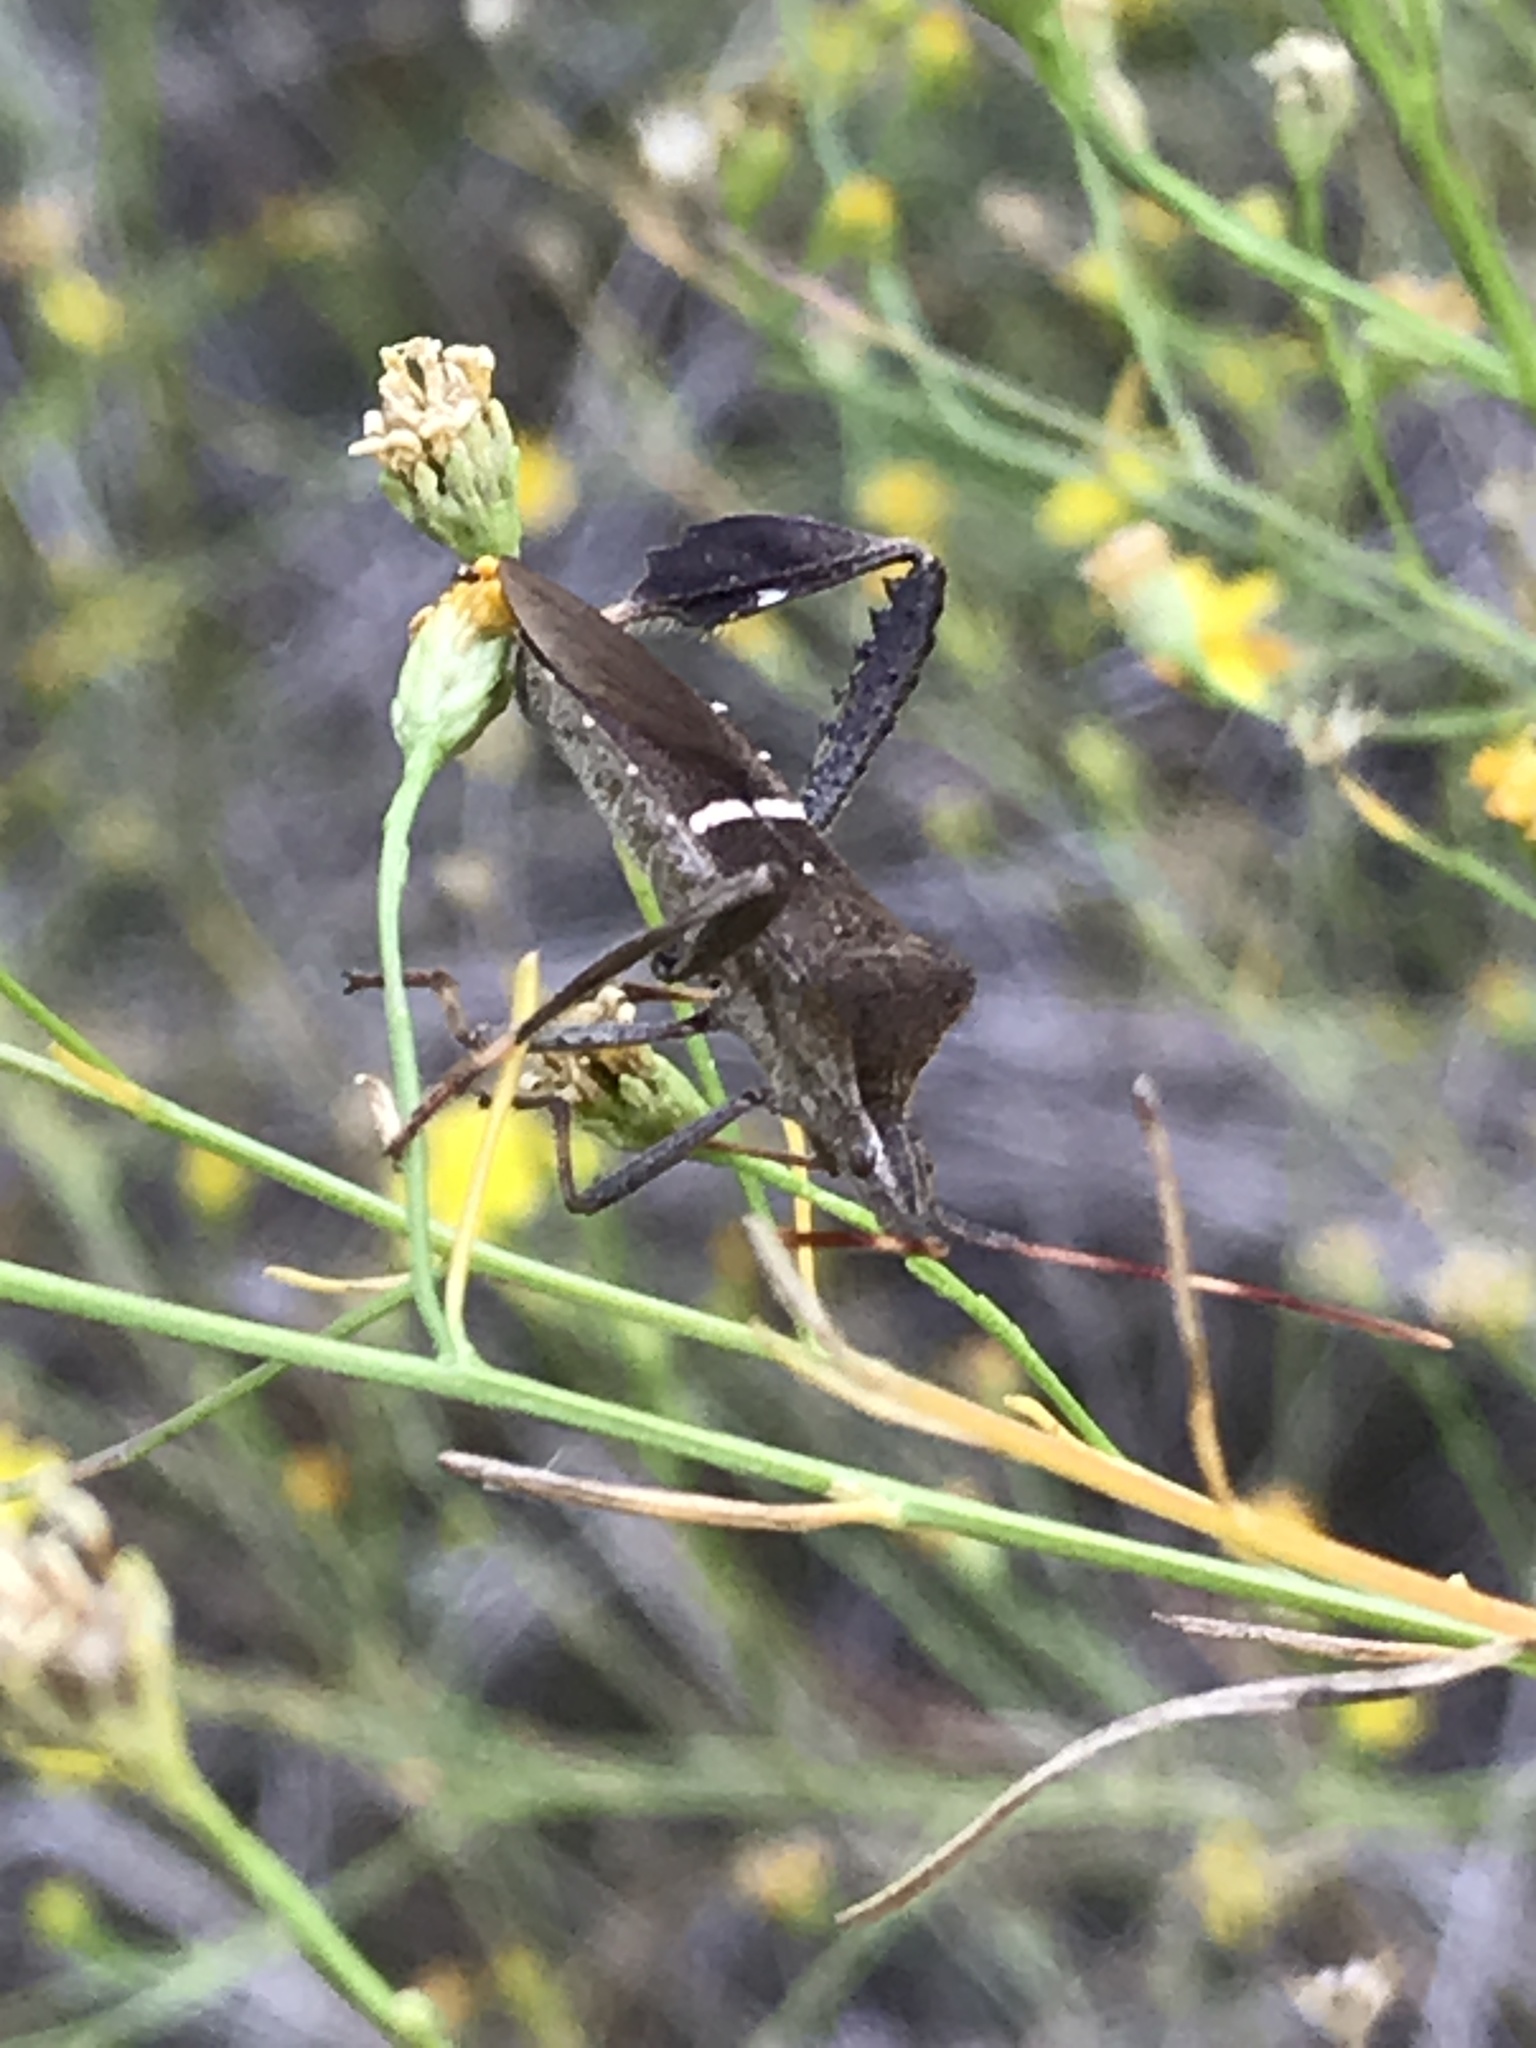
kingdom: Animalia
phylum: Arthropoda
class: Insecta
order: Hemiptera
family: Coreidae
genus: Leptoglossus
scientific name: Leptoglossus phyllopus
